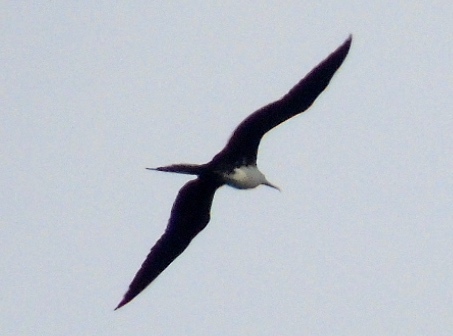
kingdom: Animalia
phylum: Chordata
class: Aves
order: Suliformes
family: Fregatidae
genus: Fregata
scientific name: Fregata magnificens
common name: Magnificent frigatebird
